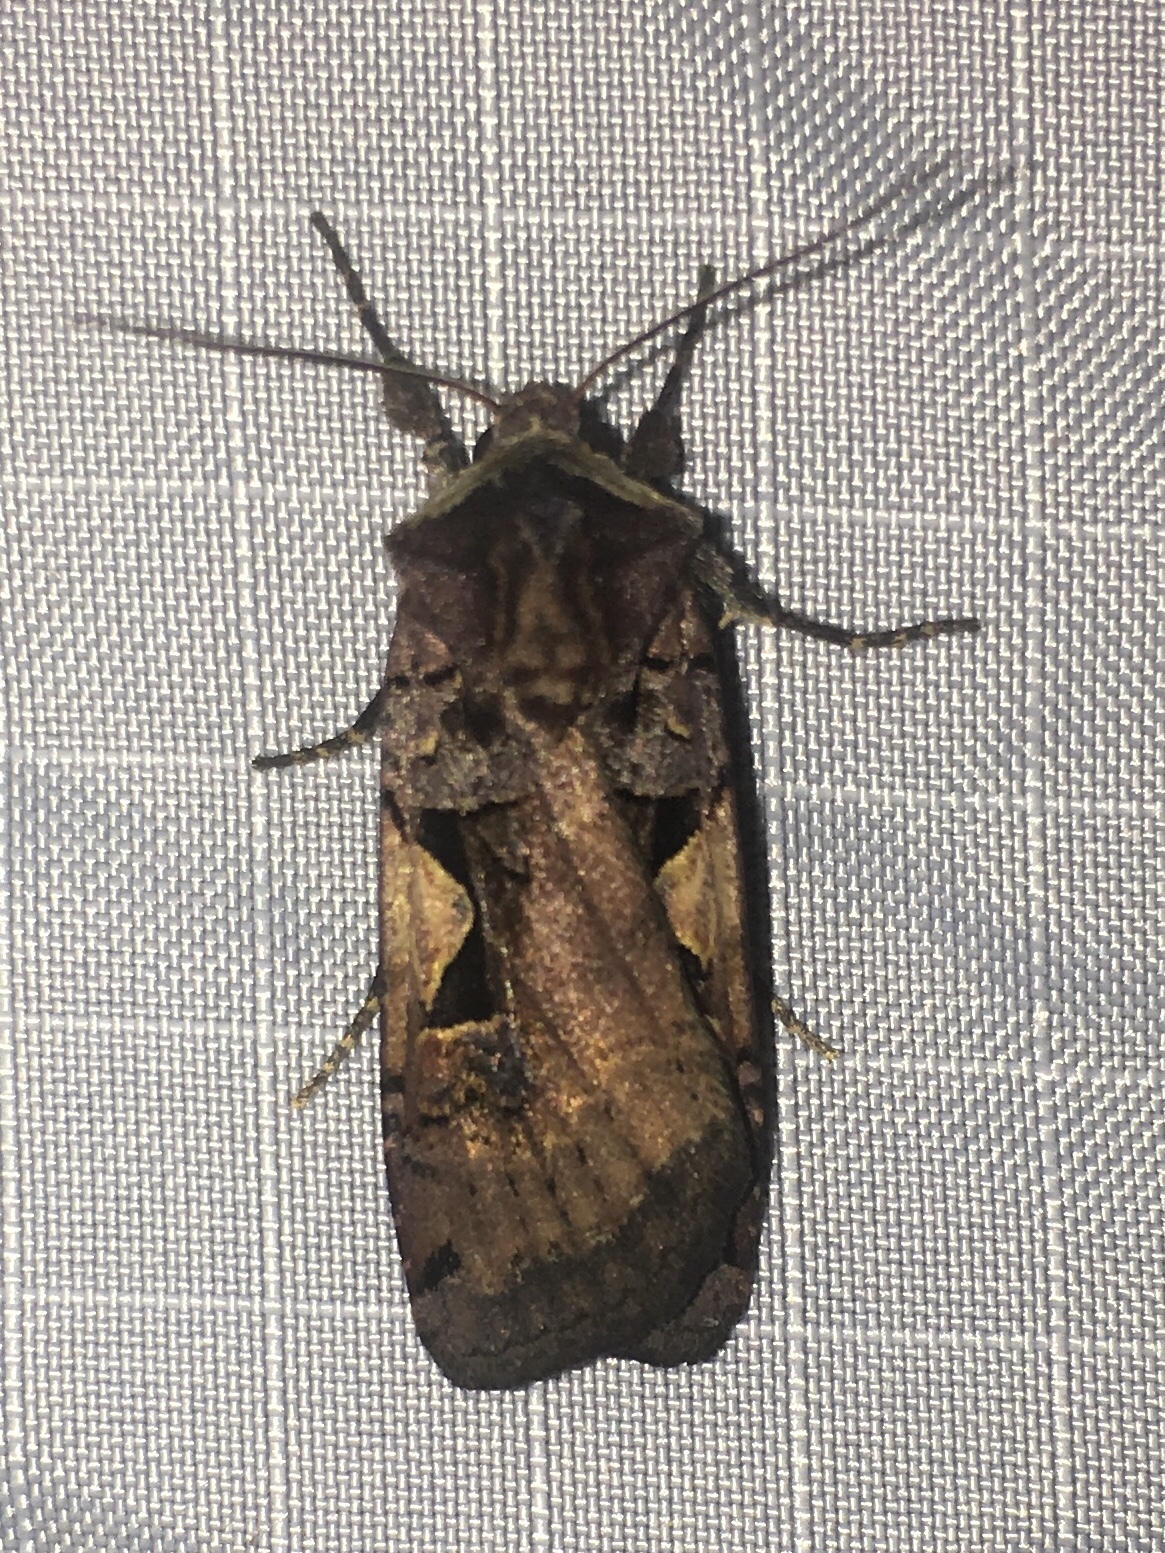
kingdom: Animalia
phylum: Arthropoda
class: Insecta
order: Lepidoptera
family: Noctuidae
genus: Xestia
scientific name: Xestia c-nigrum
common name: Setaceous hebrew character
